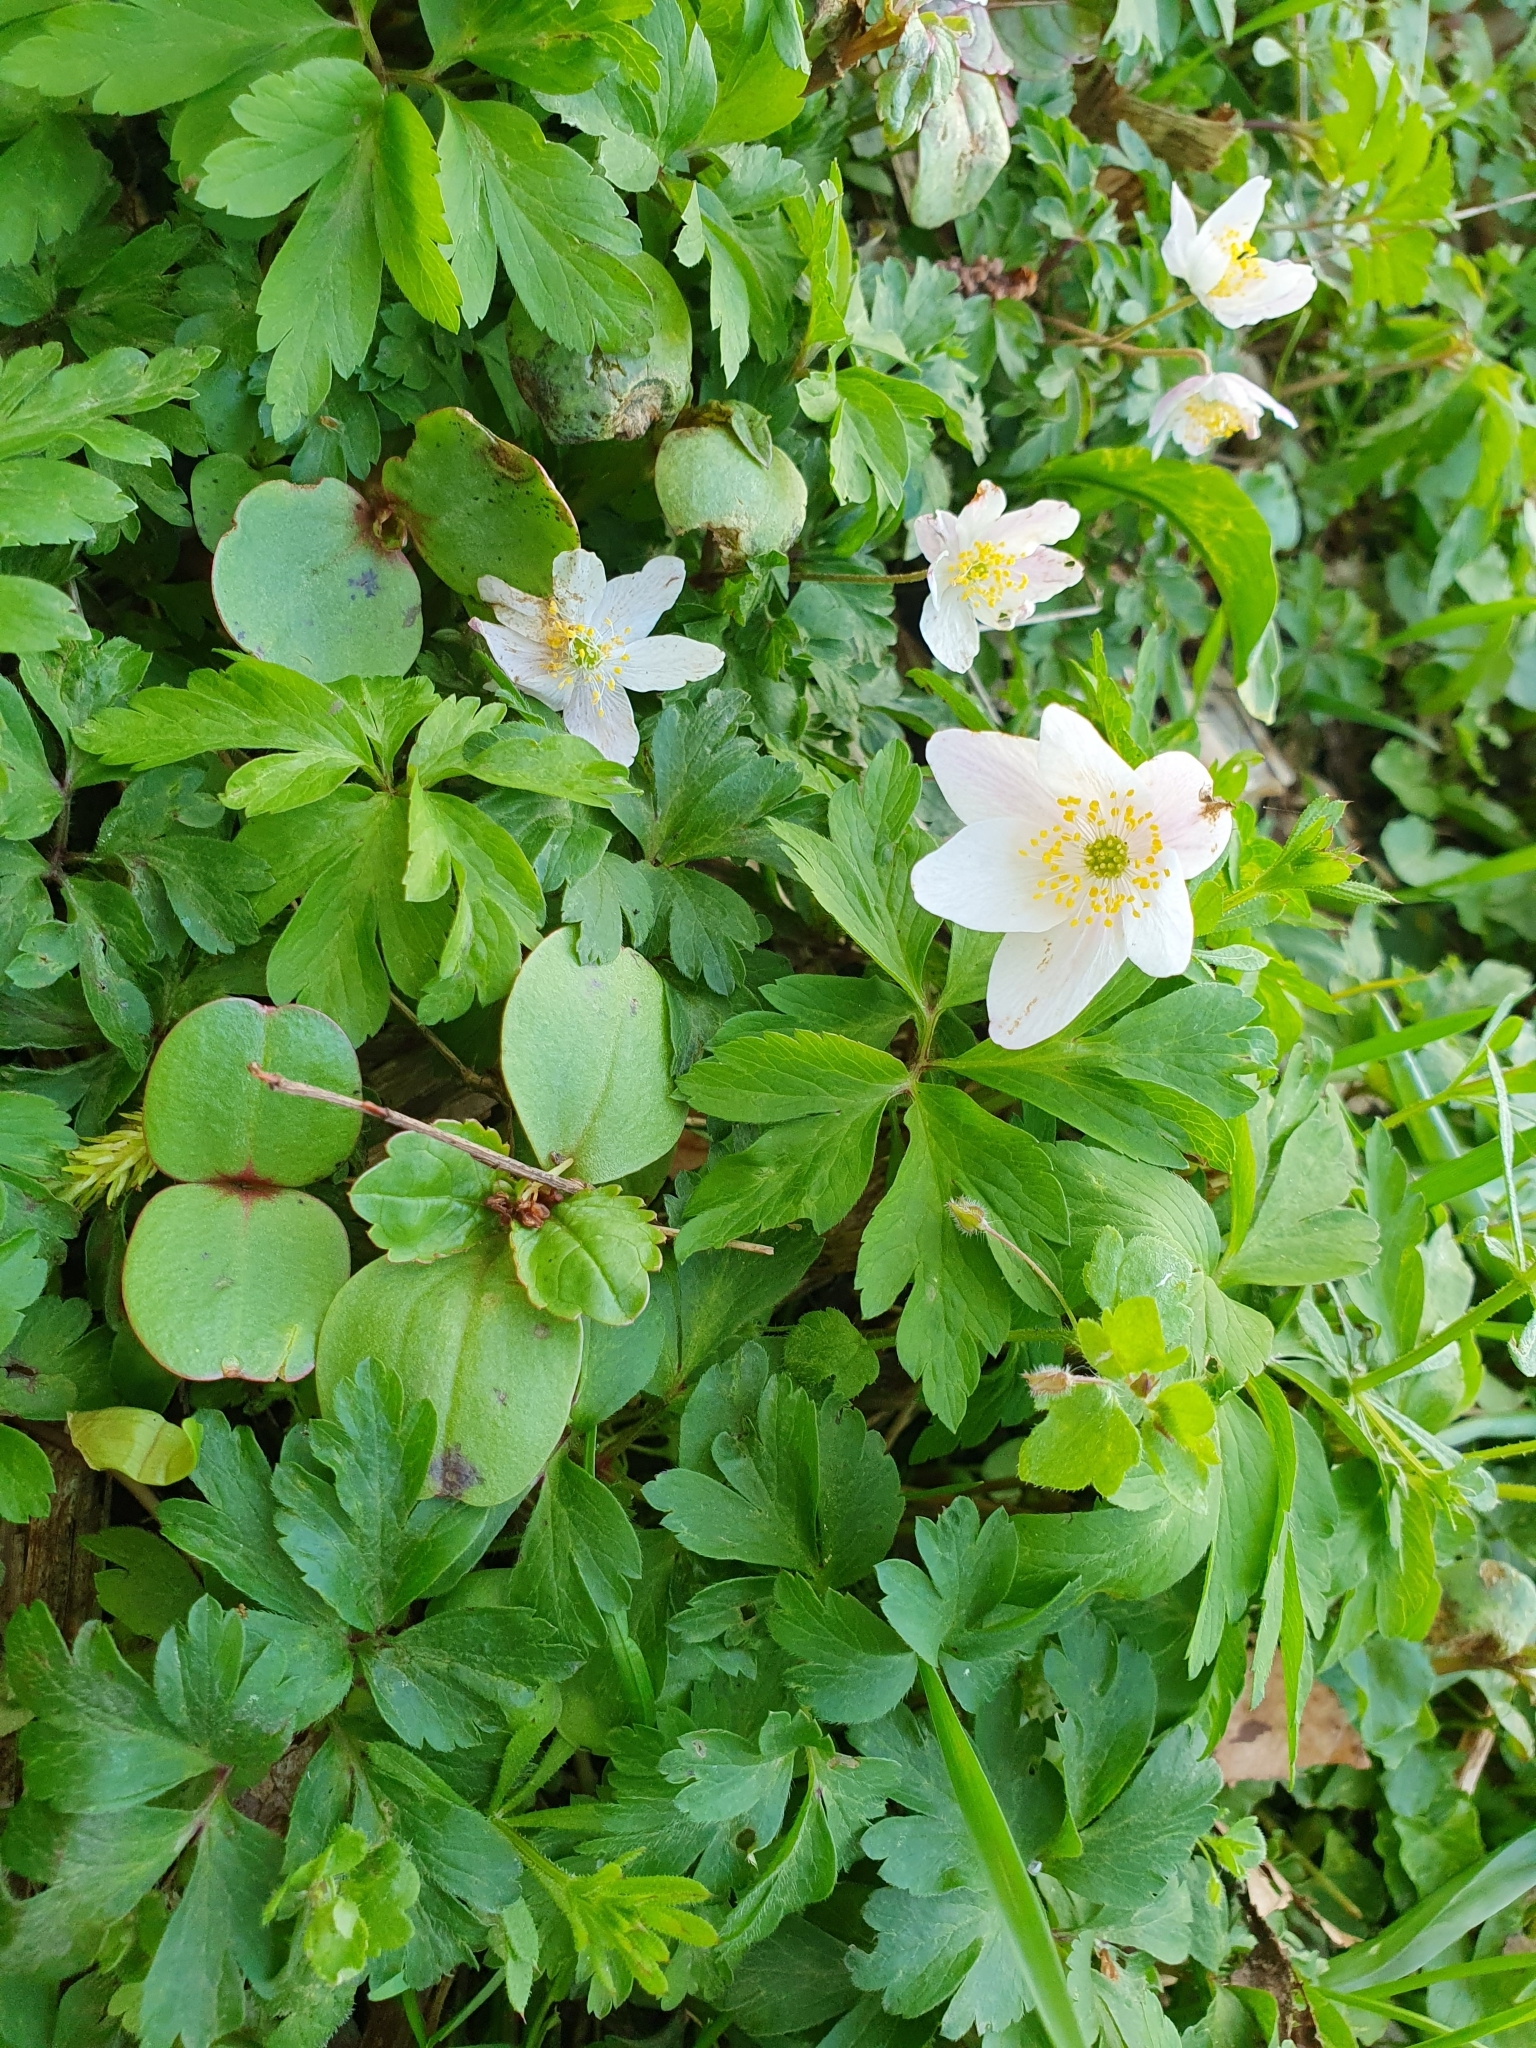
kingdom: Plantae
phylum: Tracheophyta
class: Magnoliopsida
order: Ranunculales
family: Ranunculaceae
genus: Anemone
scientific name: Anemone nemorosa
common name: Wood anemone
